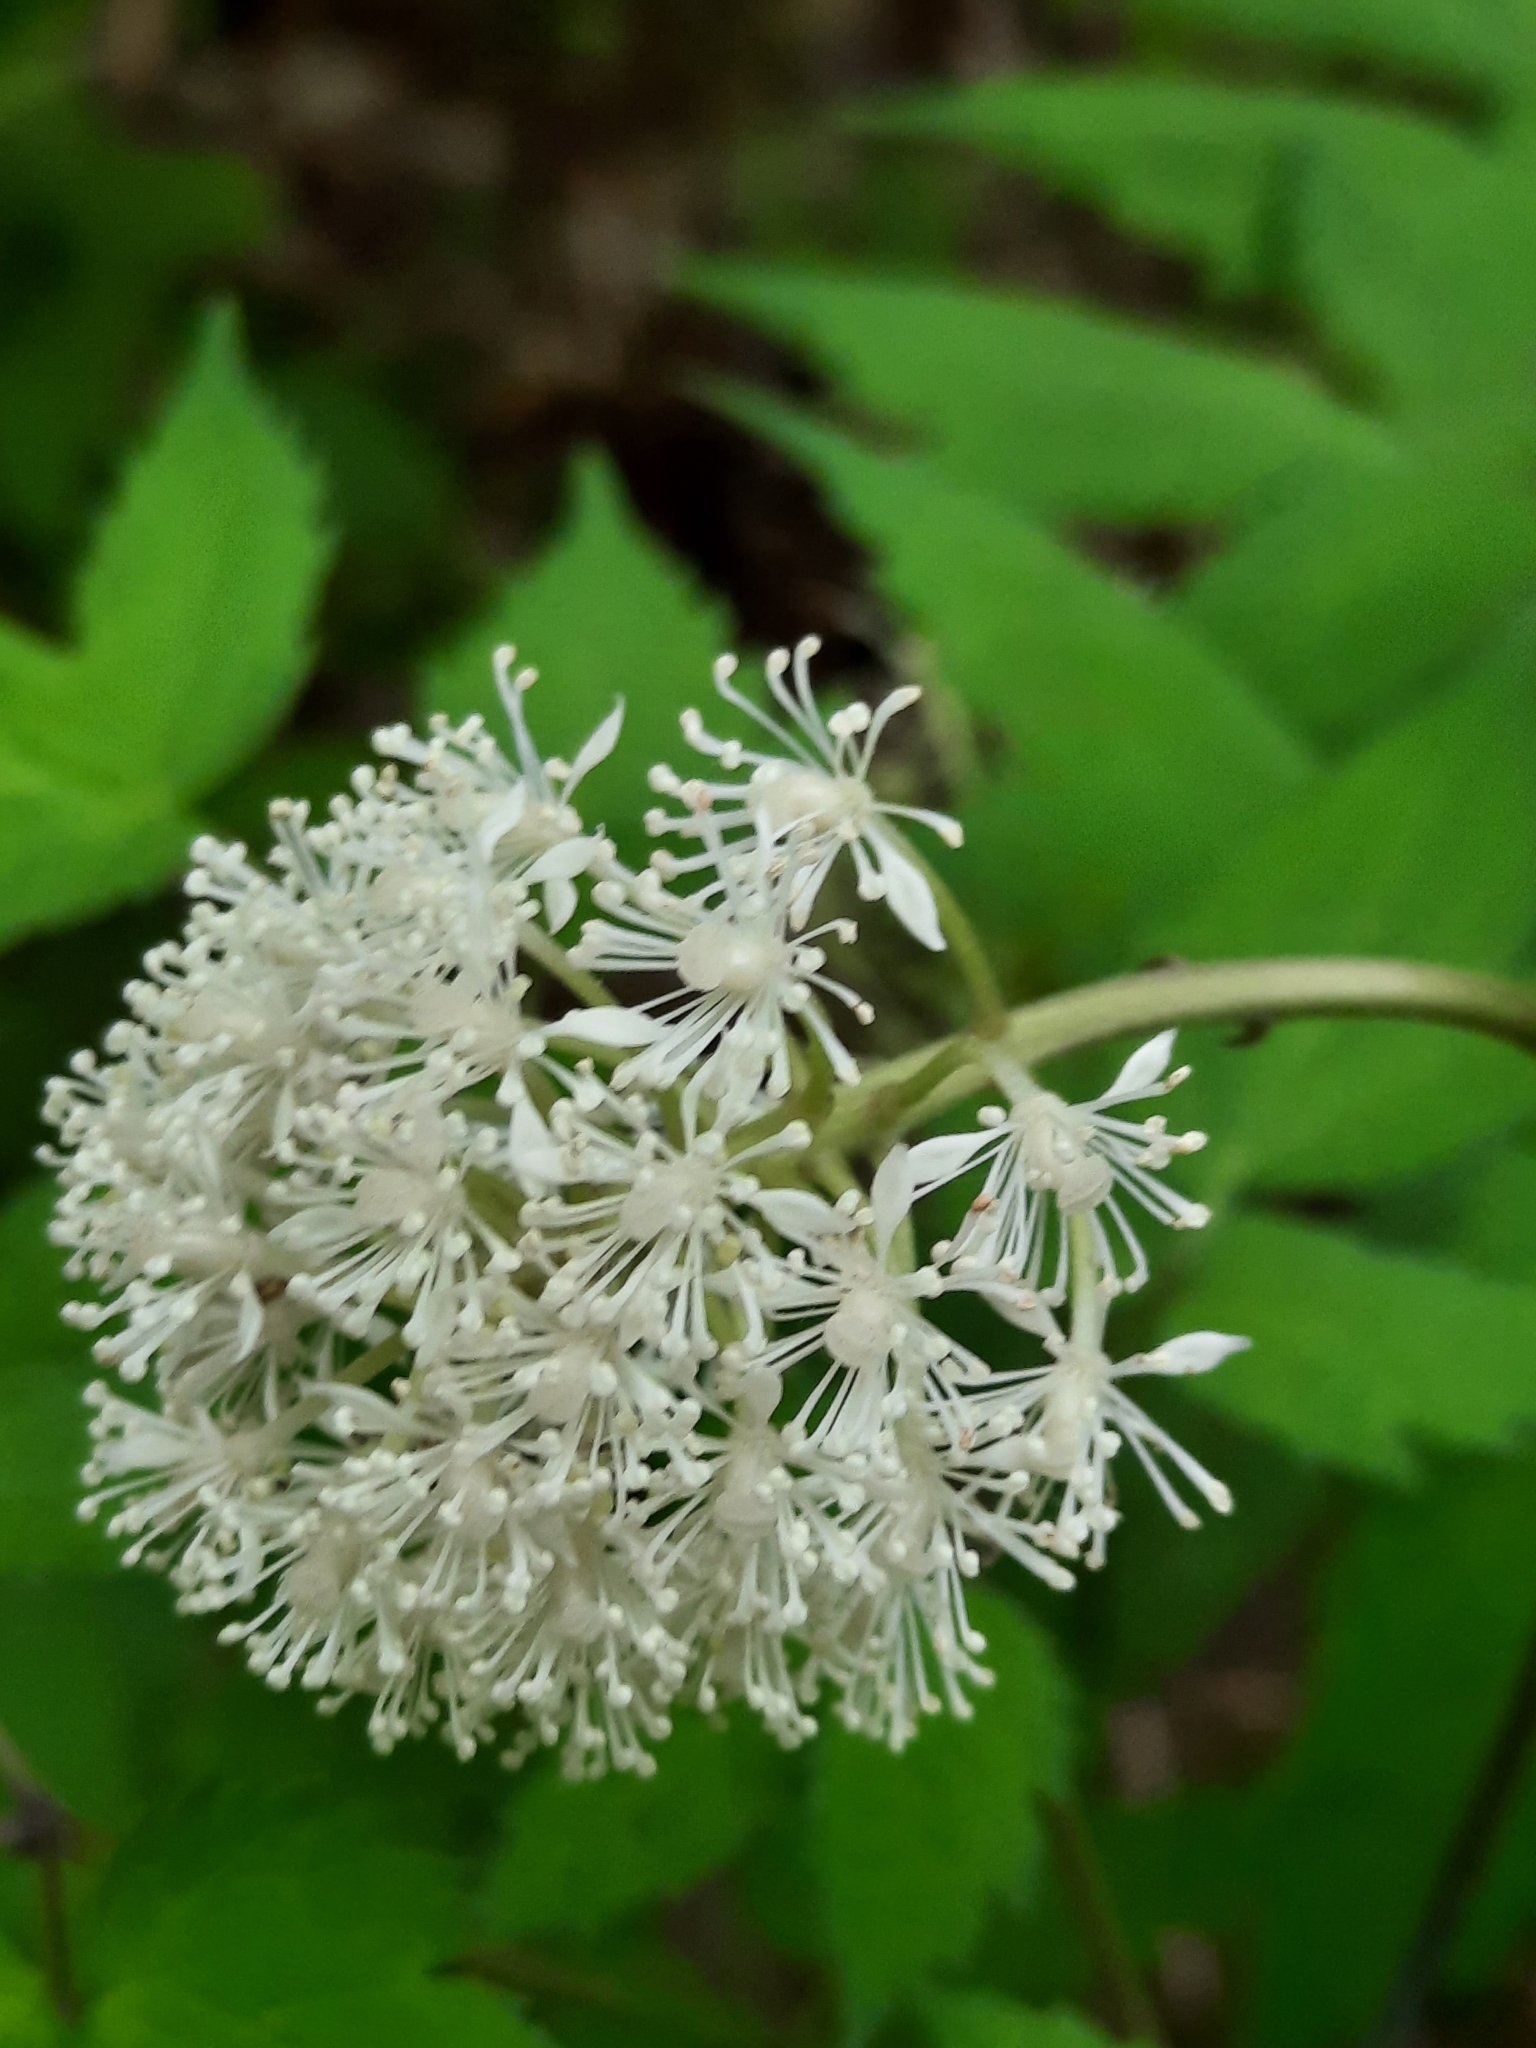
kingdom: Plantae
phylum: Tracheophyta
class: Magnoliopsida
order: Ranunculales
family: Ranunculaceae
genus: Actaea
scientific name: Actaea rubra
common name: Red baneberry
